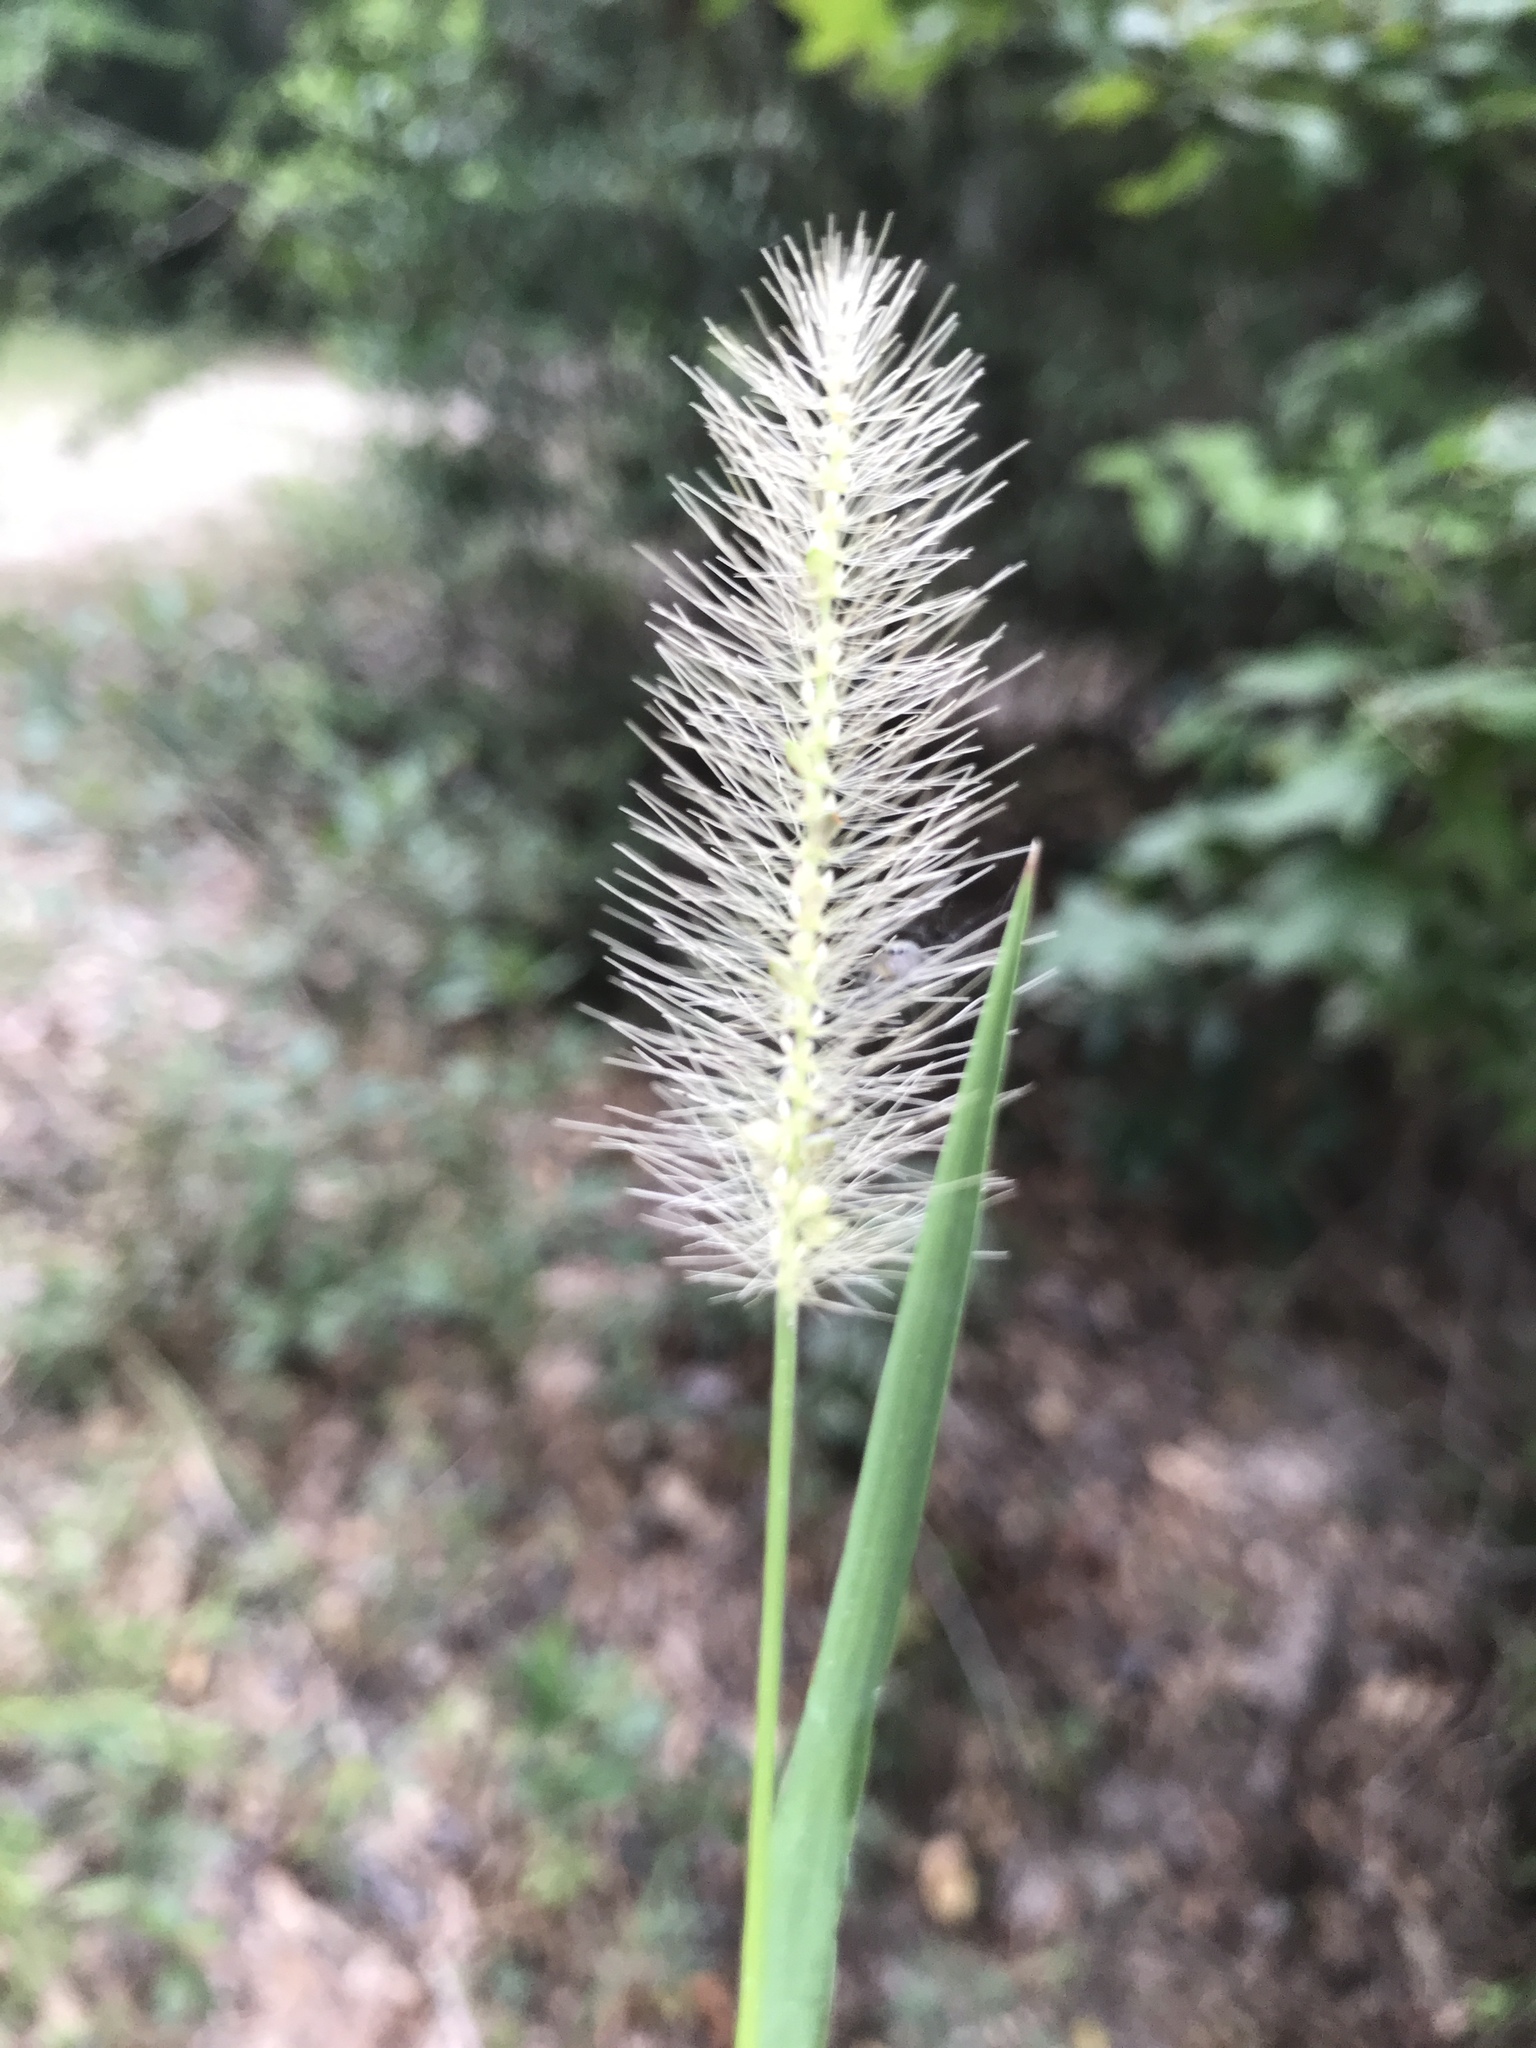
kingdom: Plantae
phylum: Tracheophyta
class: Liliopsida
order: Poales
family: Poaceae
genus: Setaria
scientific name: Setaria parviflora
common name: Knotroot bristle-grass
